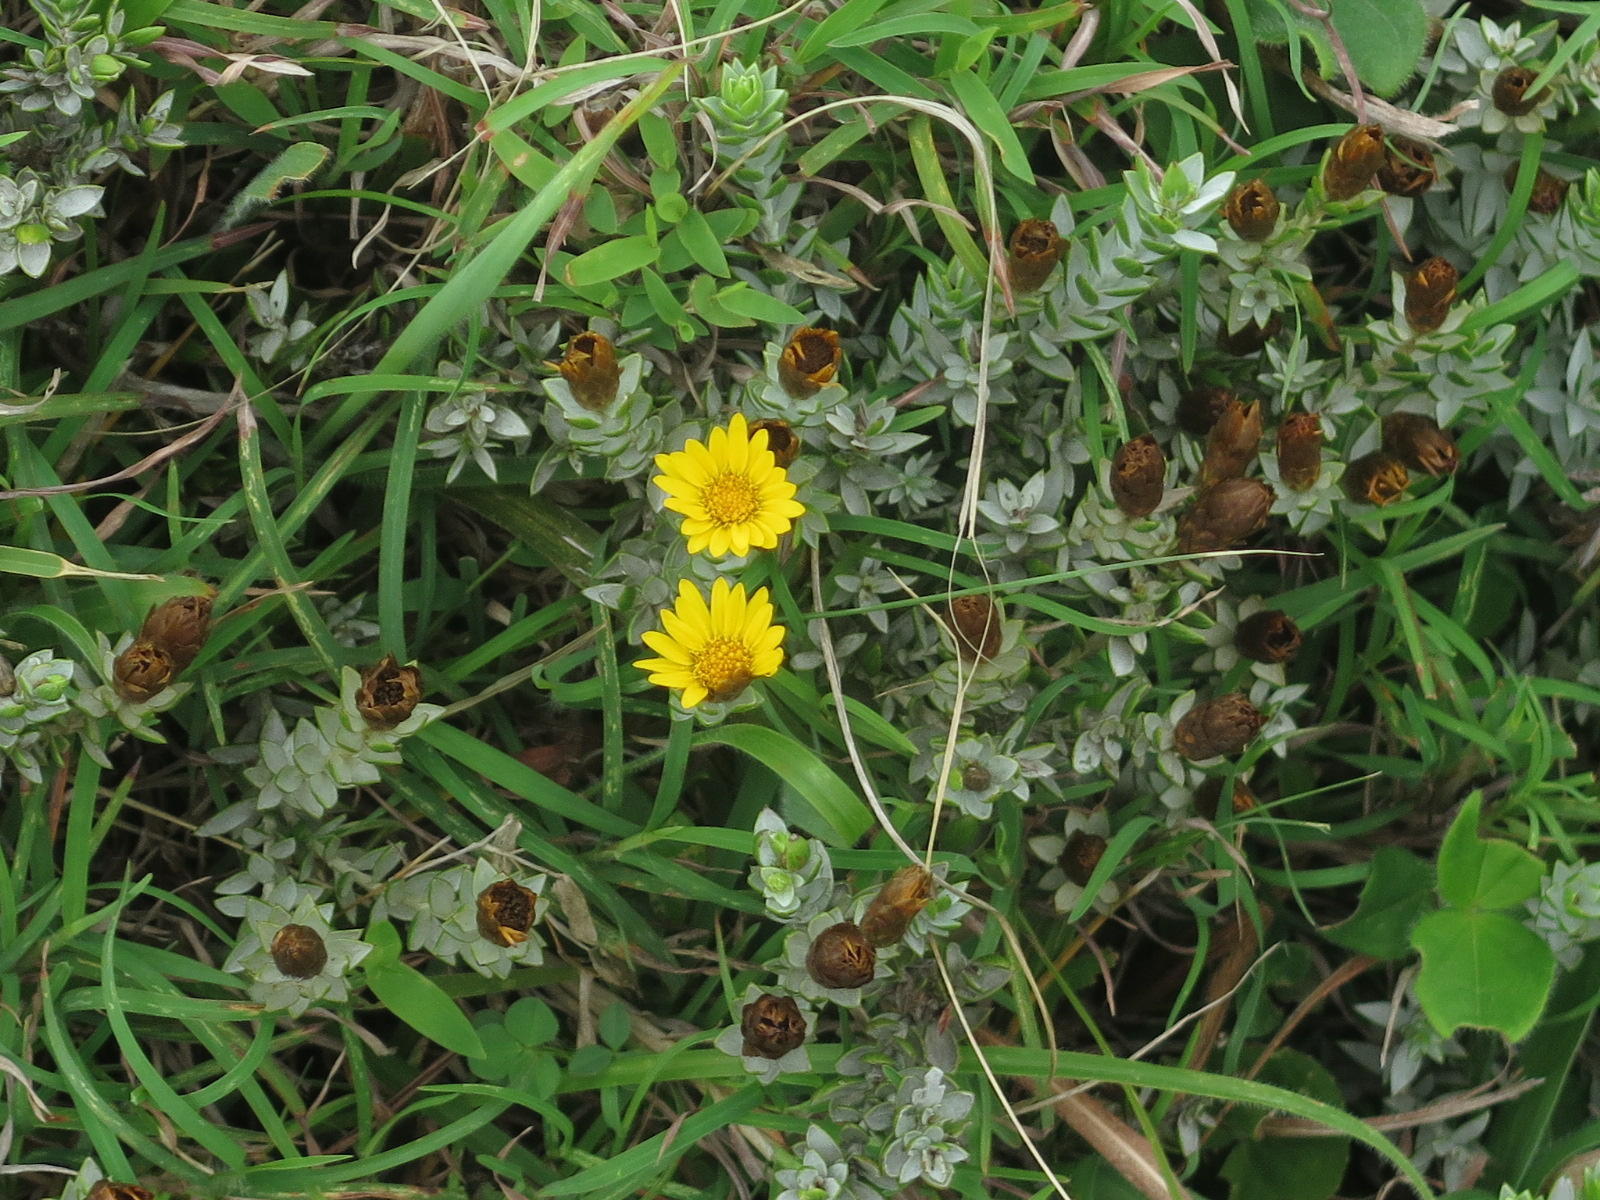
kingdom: Plantae
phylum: Tracheophyta
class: Magnoliopsida
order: Asterales
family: Asteraceae
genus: Oedera
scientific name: Oedera pungens
